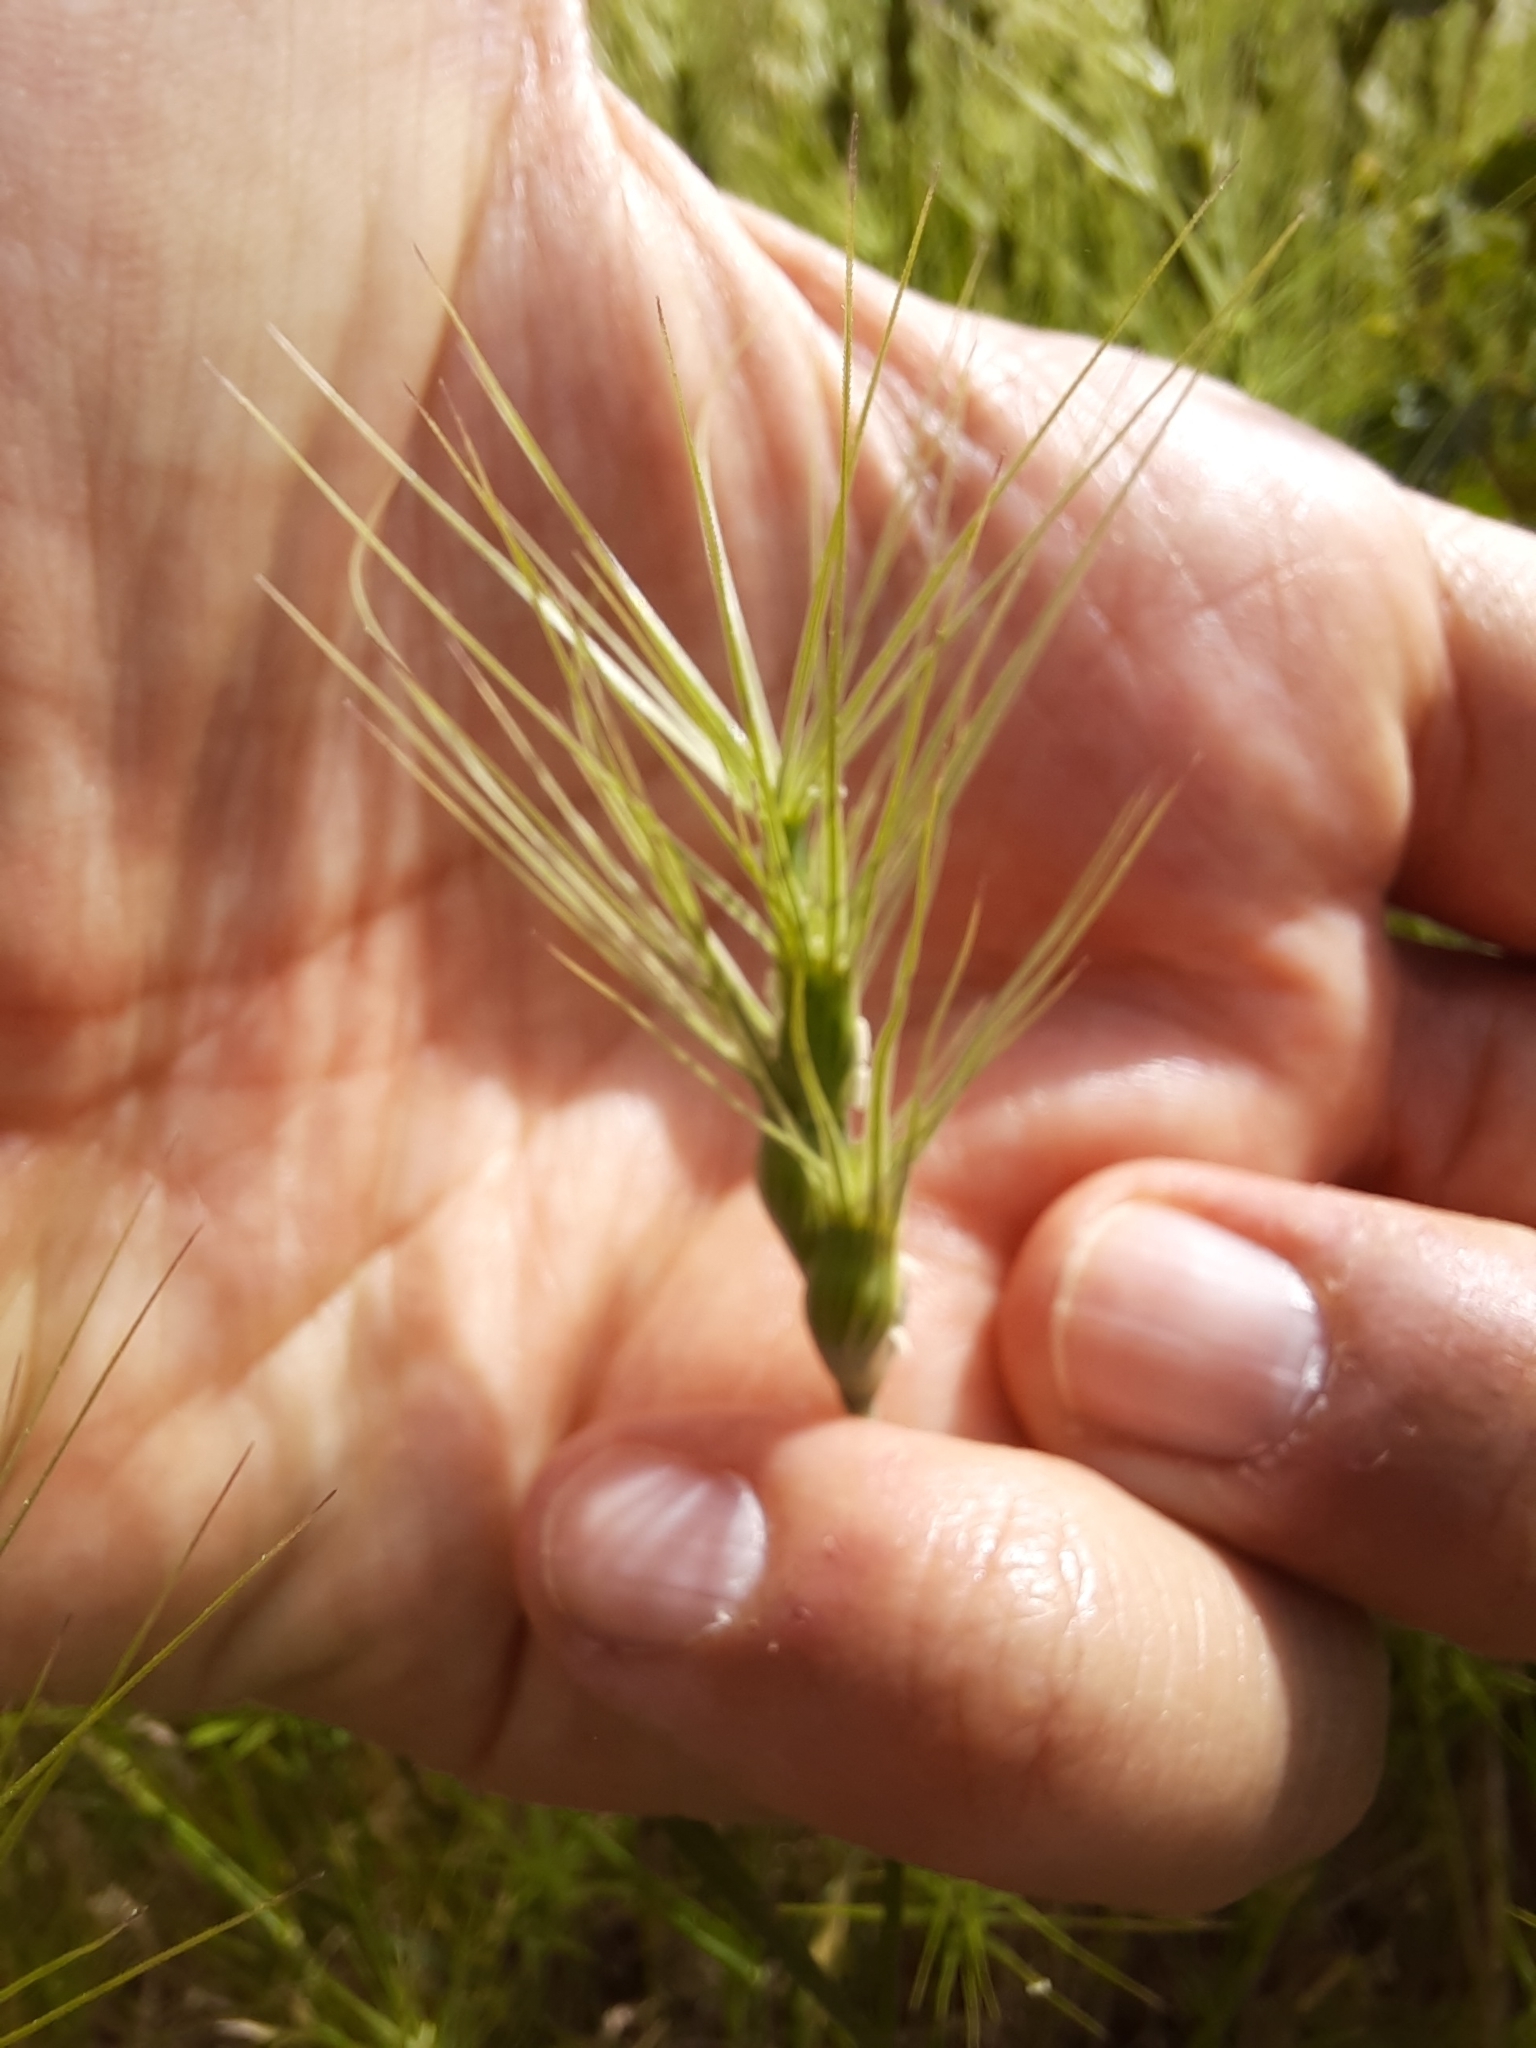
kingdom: Plantae
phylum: Tracheophyta
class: Liliopsida
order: Poales
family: Poaceae
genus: Aegilops
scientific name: Aegilops geniculata
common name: Ovate goat grass
